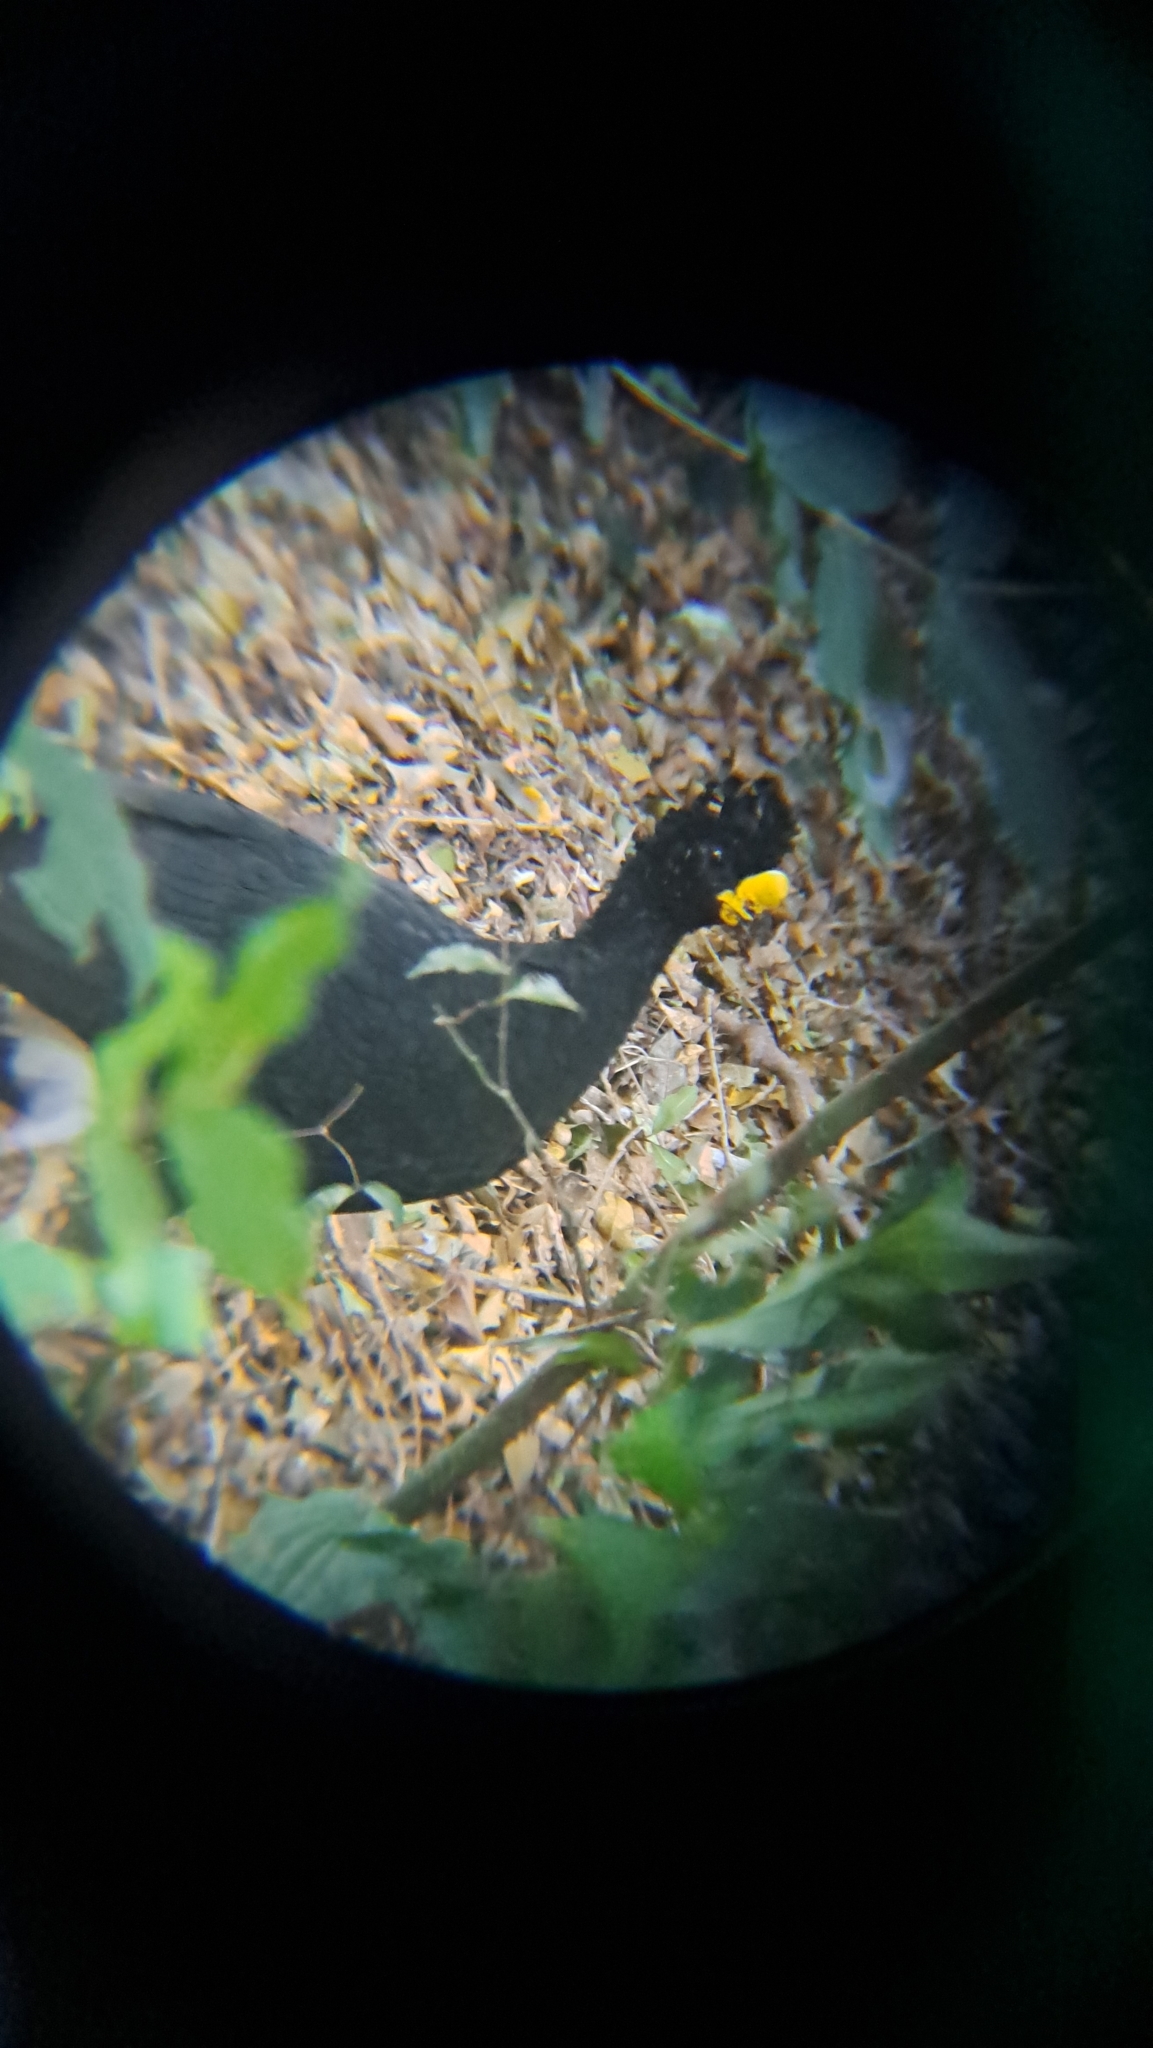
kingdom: Animalia
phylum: Chordata
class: Aves
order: Galliformes
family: Cracidae
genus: Crax
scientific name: Crax rubra
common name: Great curassow
